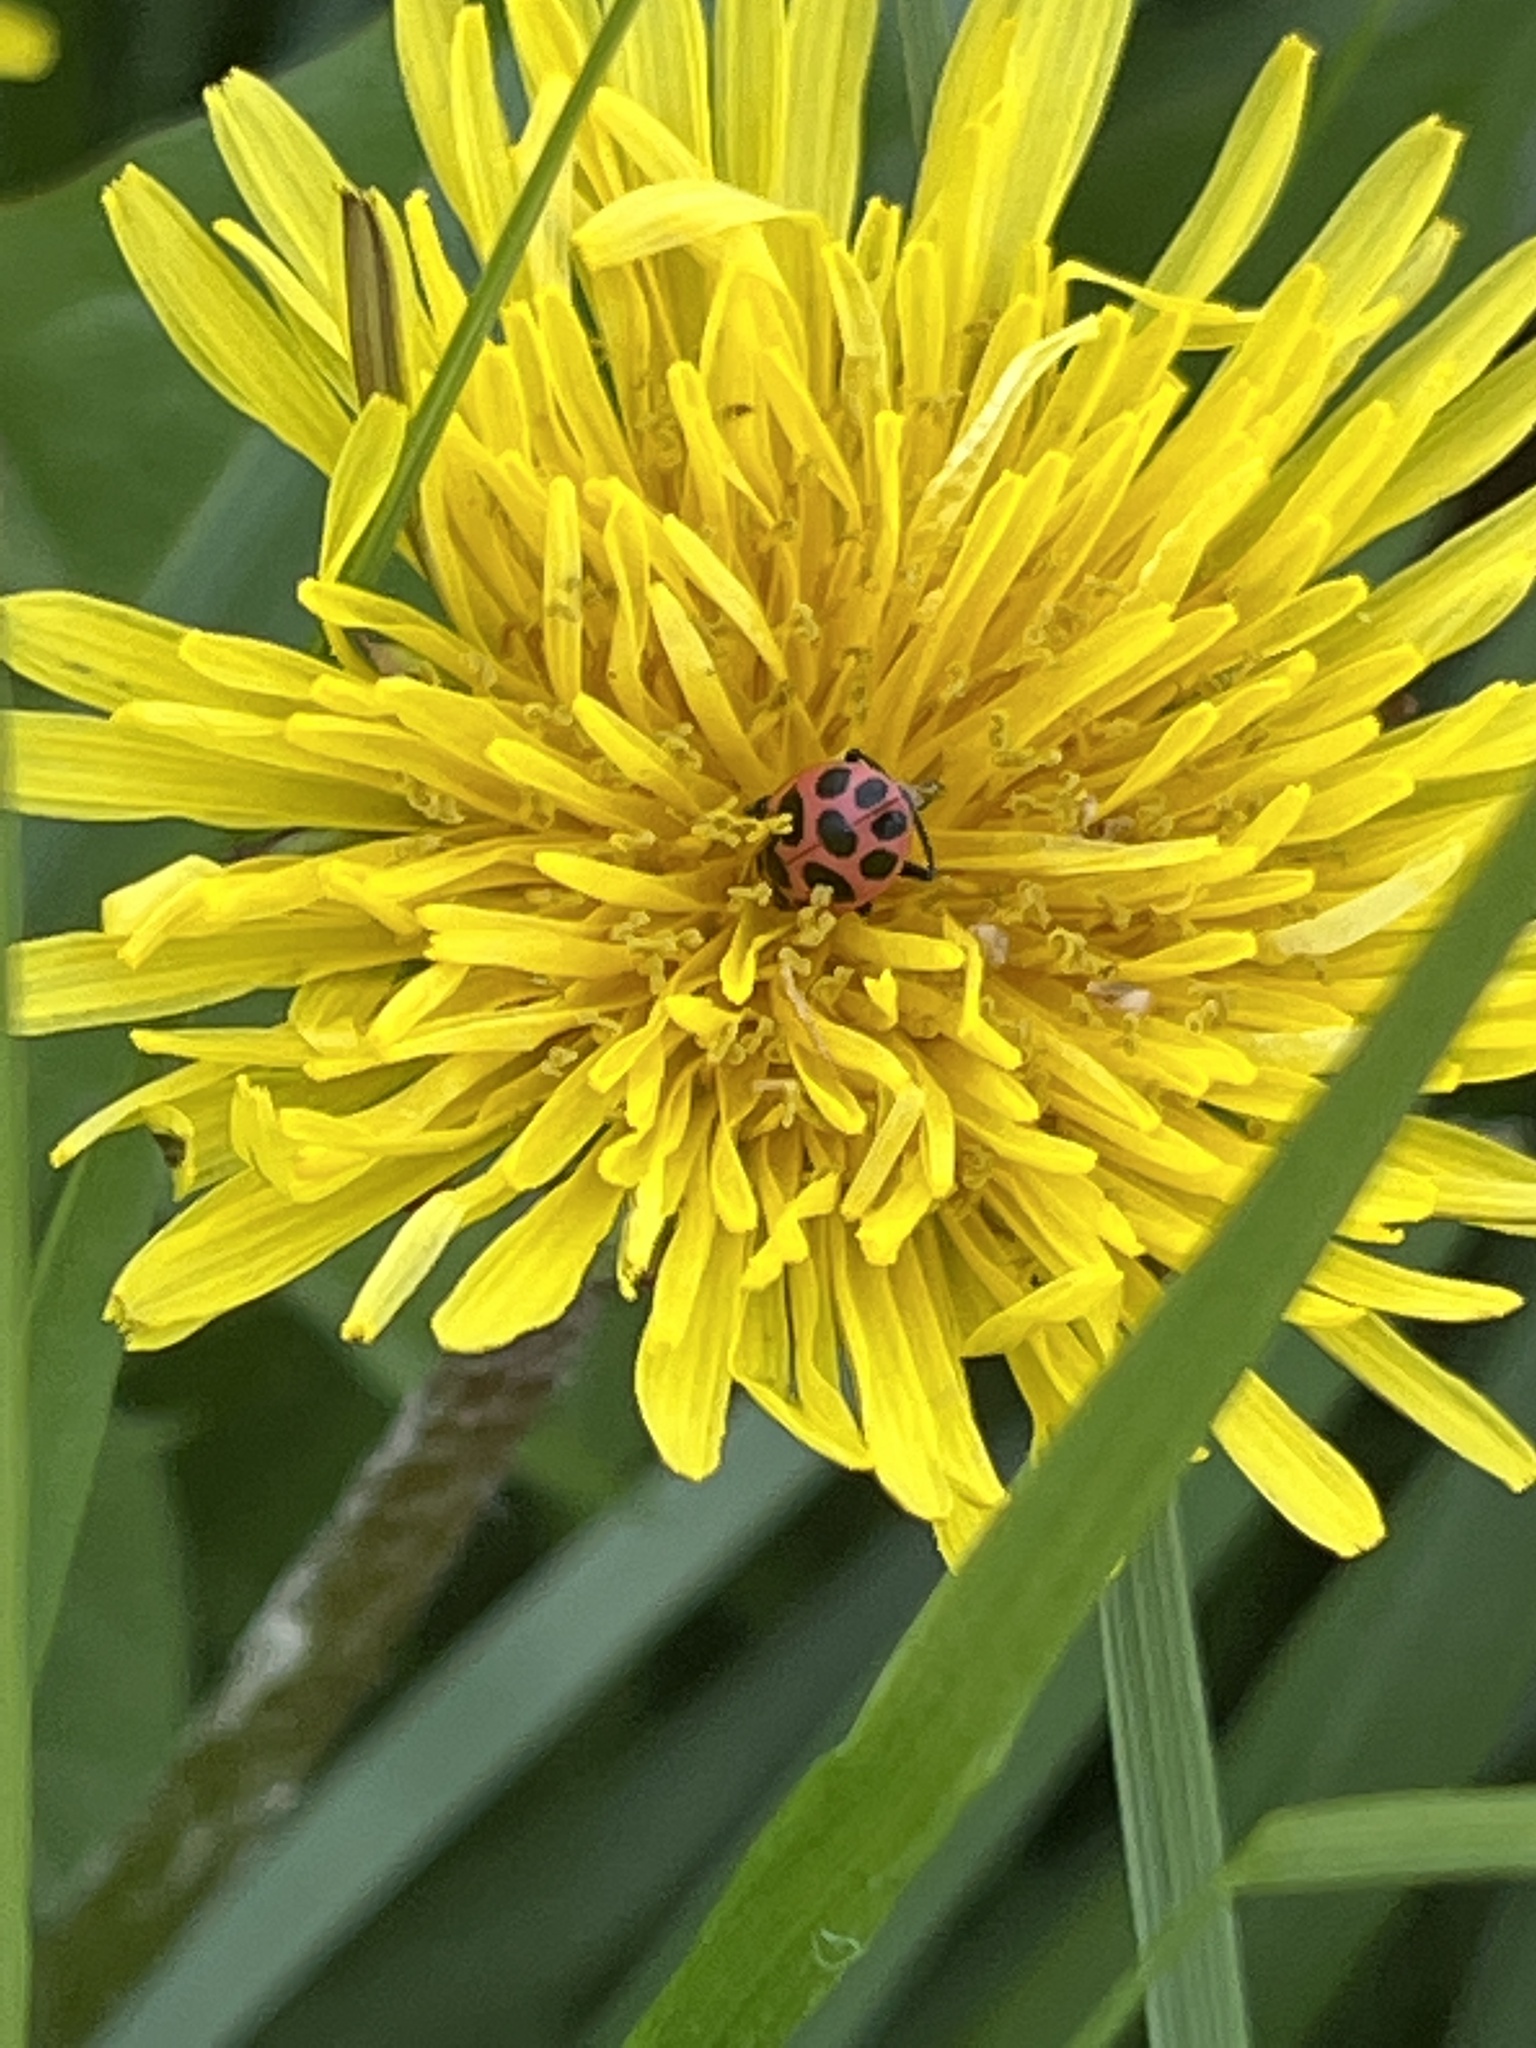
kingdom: Animalia
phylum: Arthropoda
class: Insecta
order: Coleoptera
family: Coccinellidae
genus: Coleomegilla
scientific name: Coleomegilla maculata
